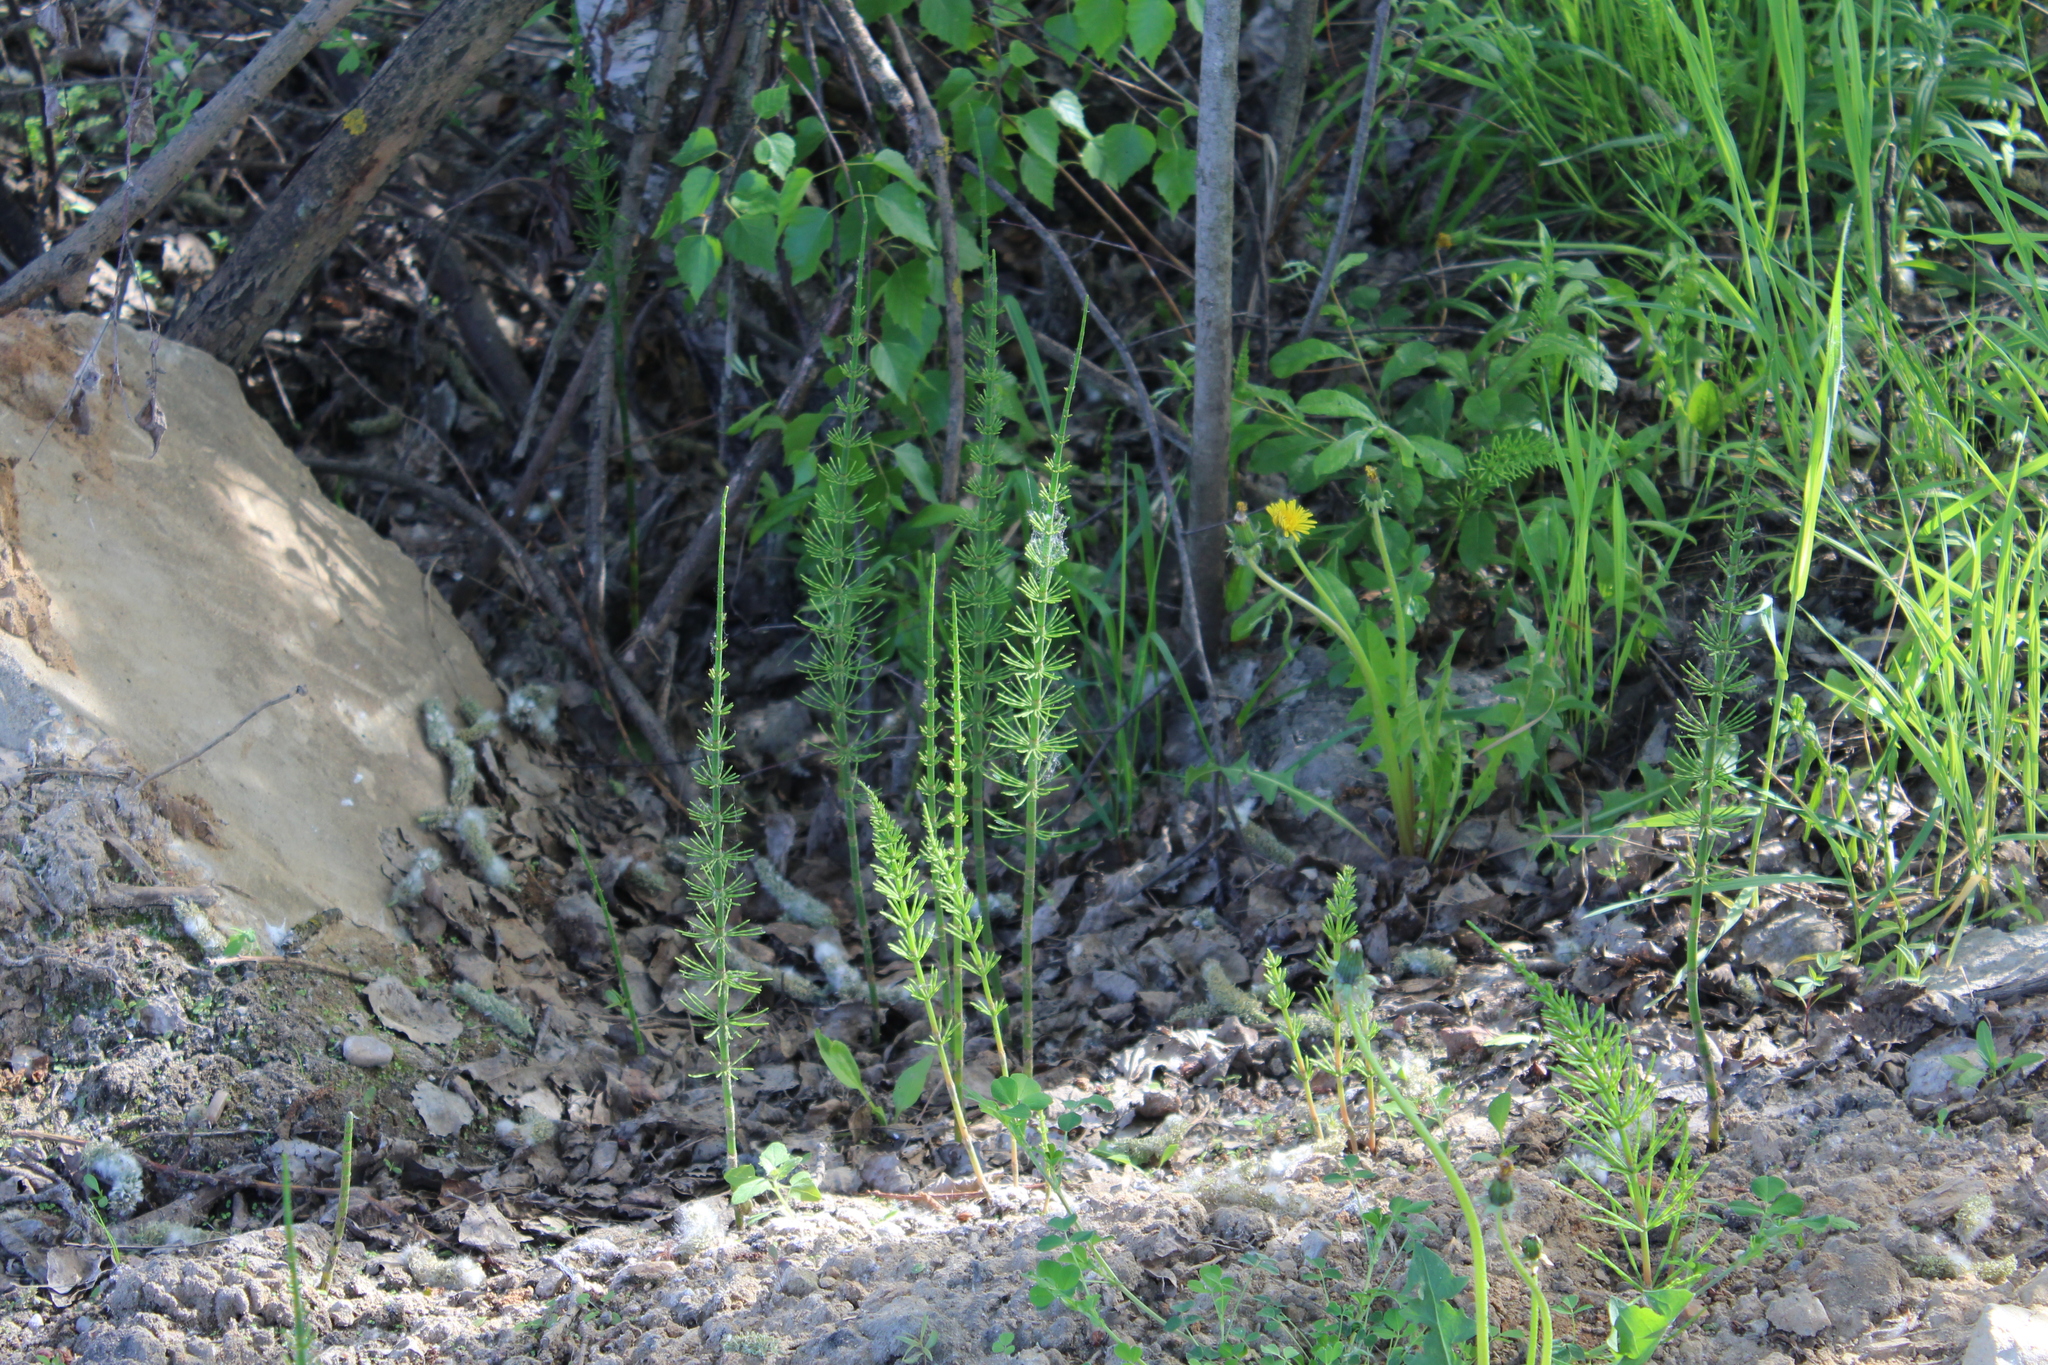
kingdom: Plantae
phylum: Tracheophyta
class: Polypodiopsida
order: Equisetales
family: Equisetaceae
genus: Equisetum
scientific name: Equisetum fluviatile
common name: Water horsetail
